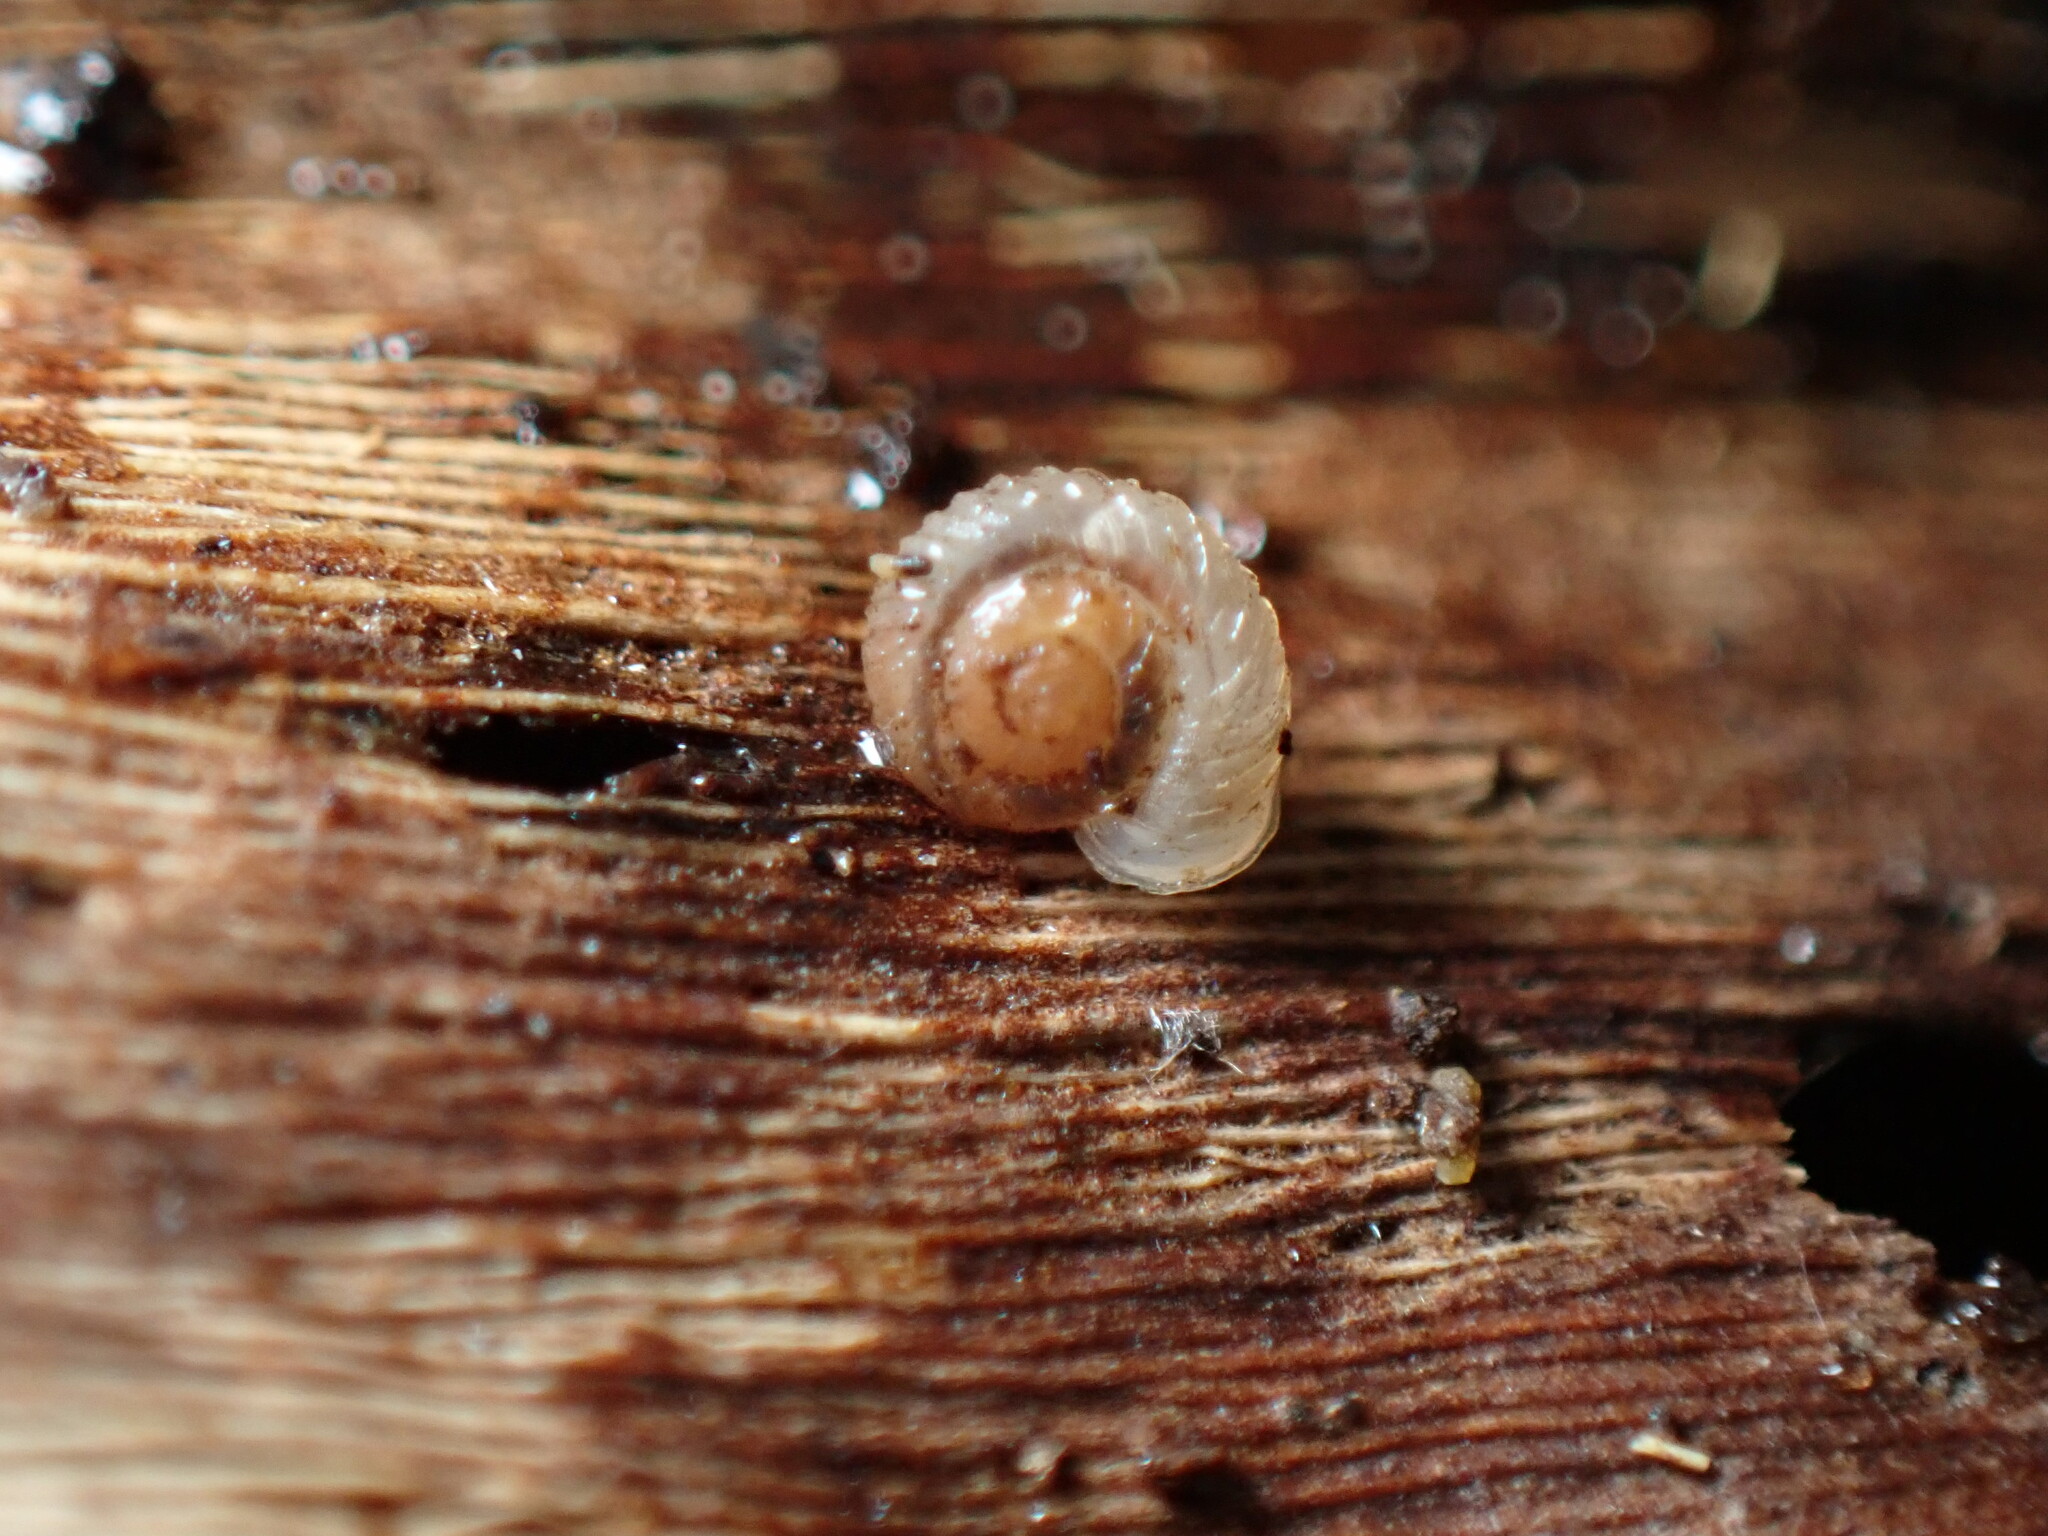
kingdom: Animalia
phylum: Mollusca
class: Gastropoda
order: Stylommatophora
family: Valloniidae
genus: Vallonia
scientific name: Vallonia costata
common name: Ribbed grass snail
